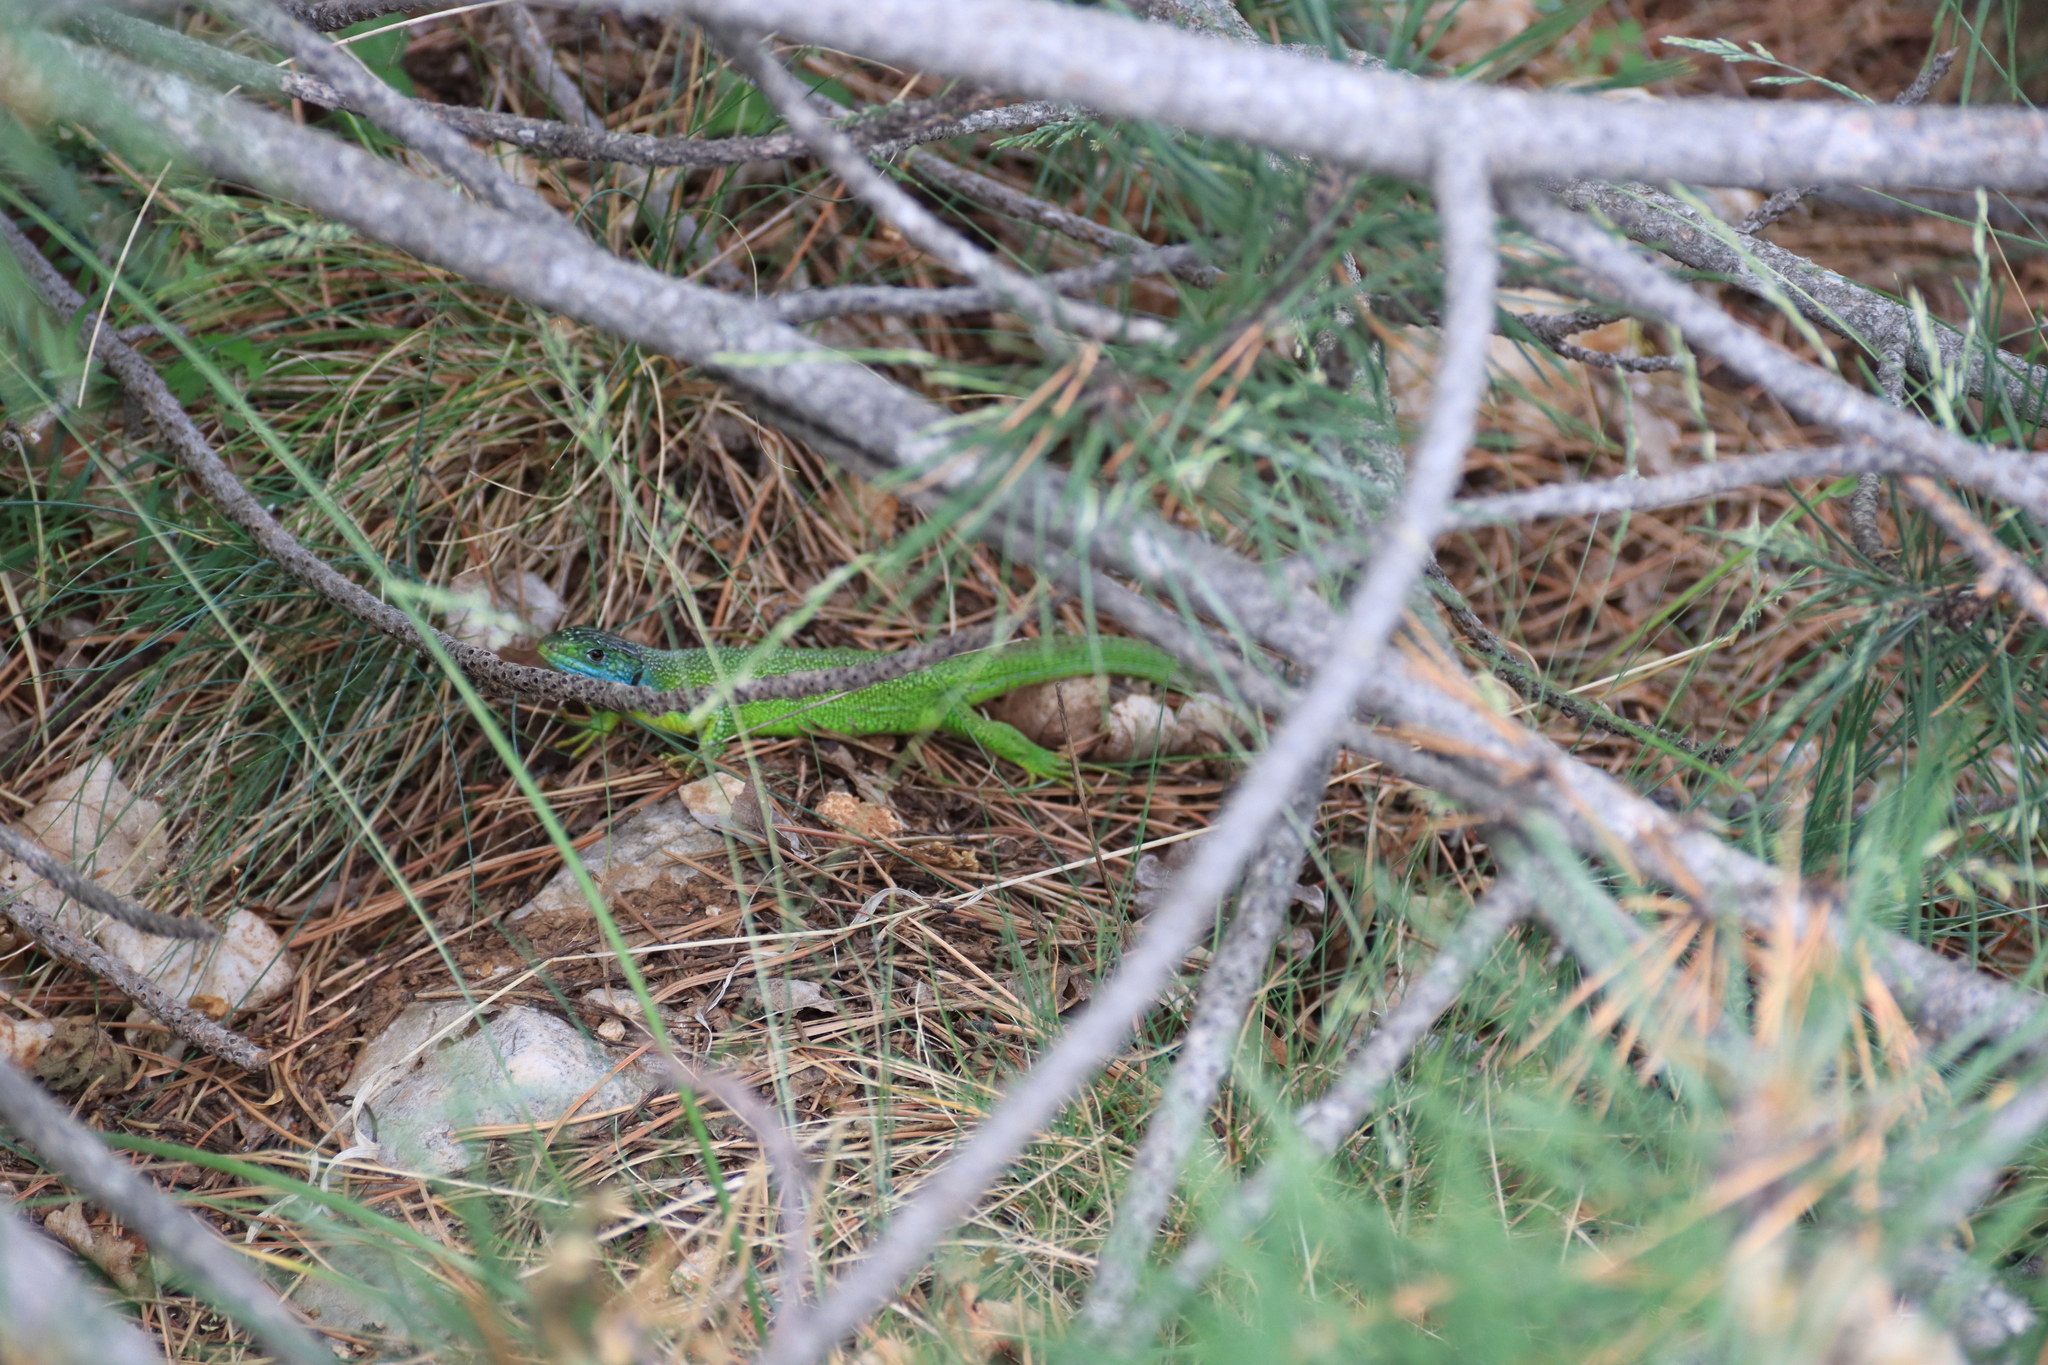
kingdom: Animalia
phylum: Chordata
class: Squamata
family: Lacertidae
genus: Lacerta
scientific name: Lacerta bilineata
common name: Western green lizard
